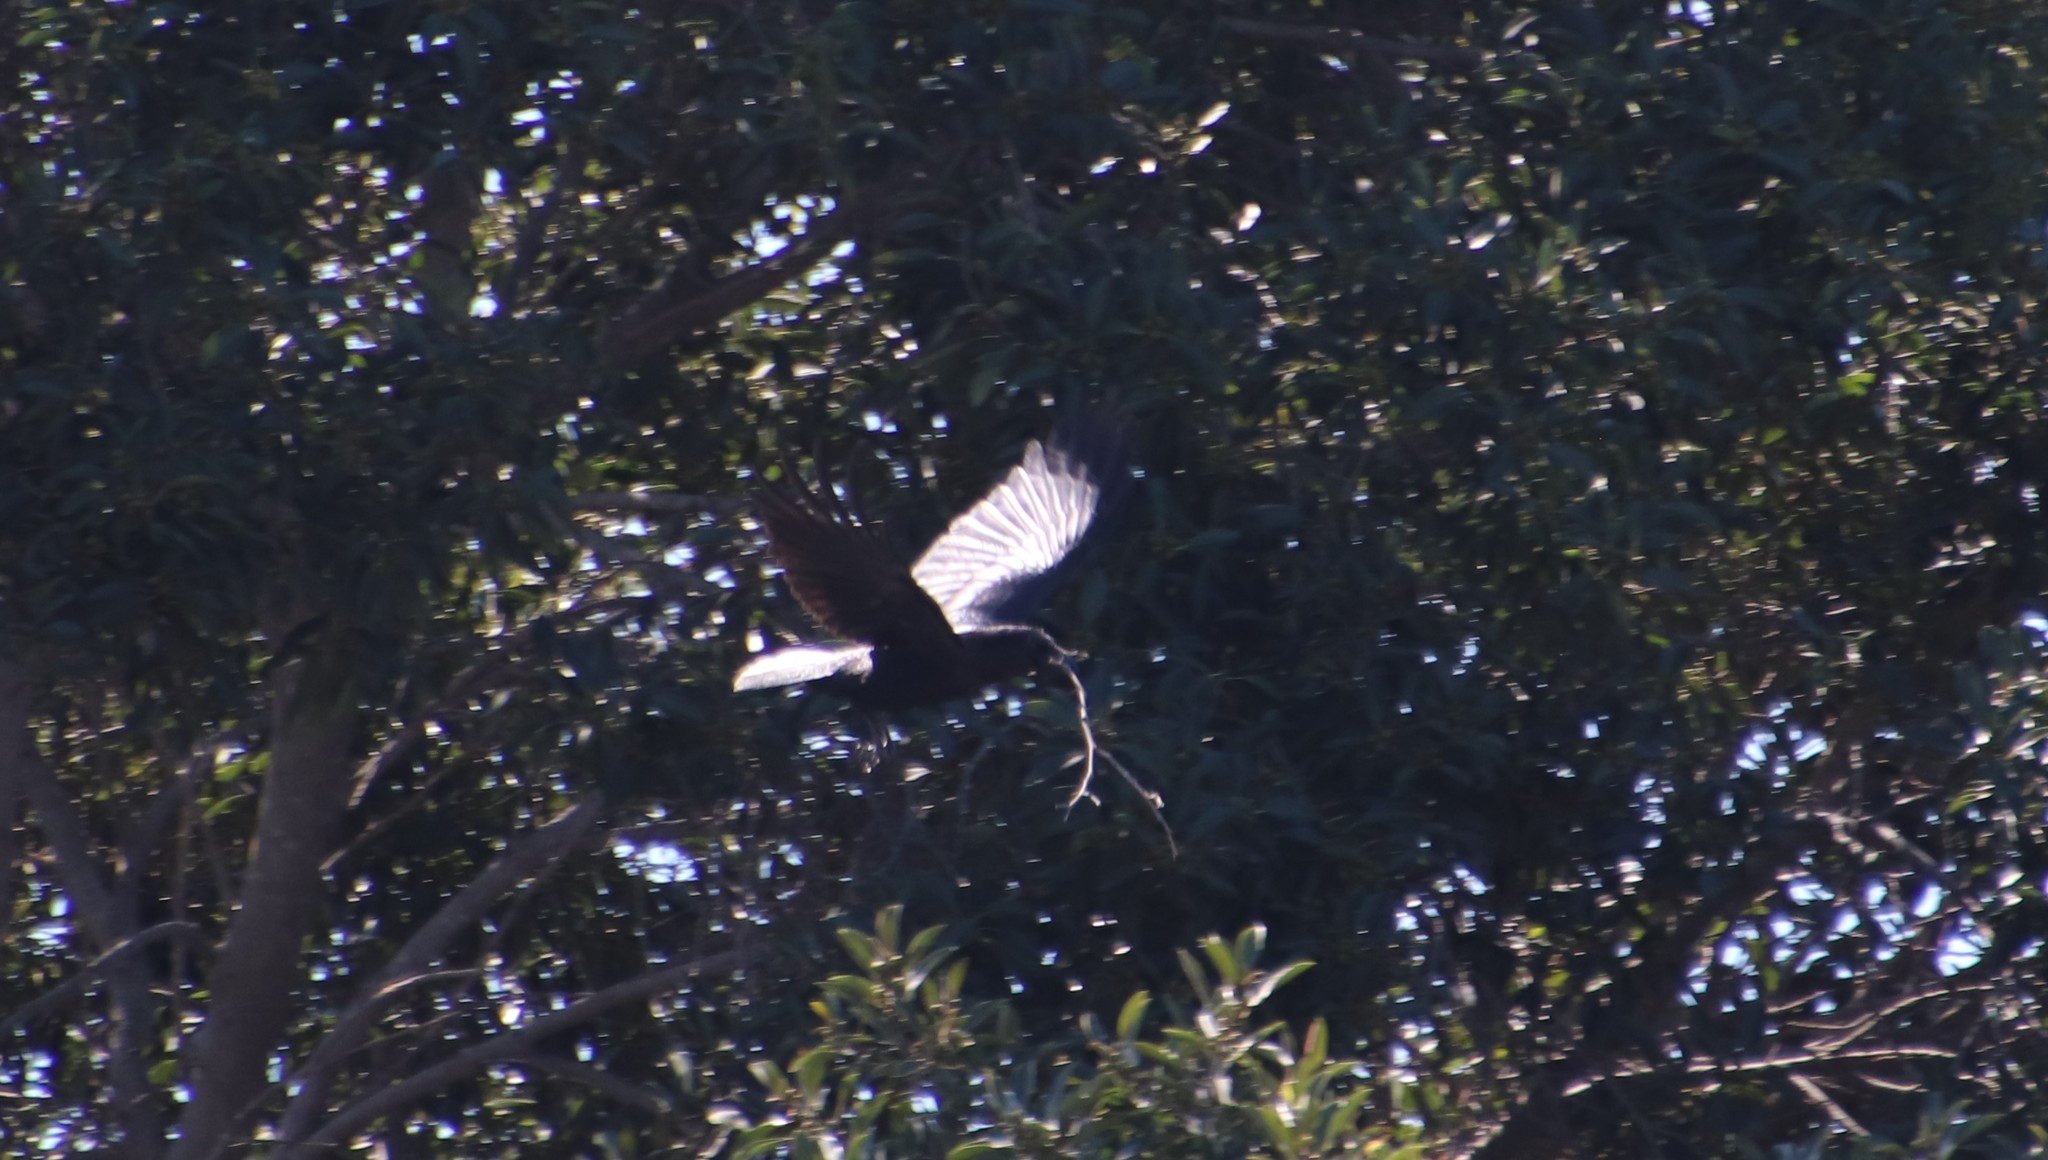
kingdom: Animalia
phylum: Chordata
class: Aves
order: Passeriformes
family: Corvidae
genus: Corvus
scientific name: Corvus brachyrhynchos
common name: American crow
